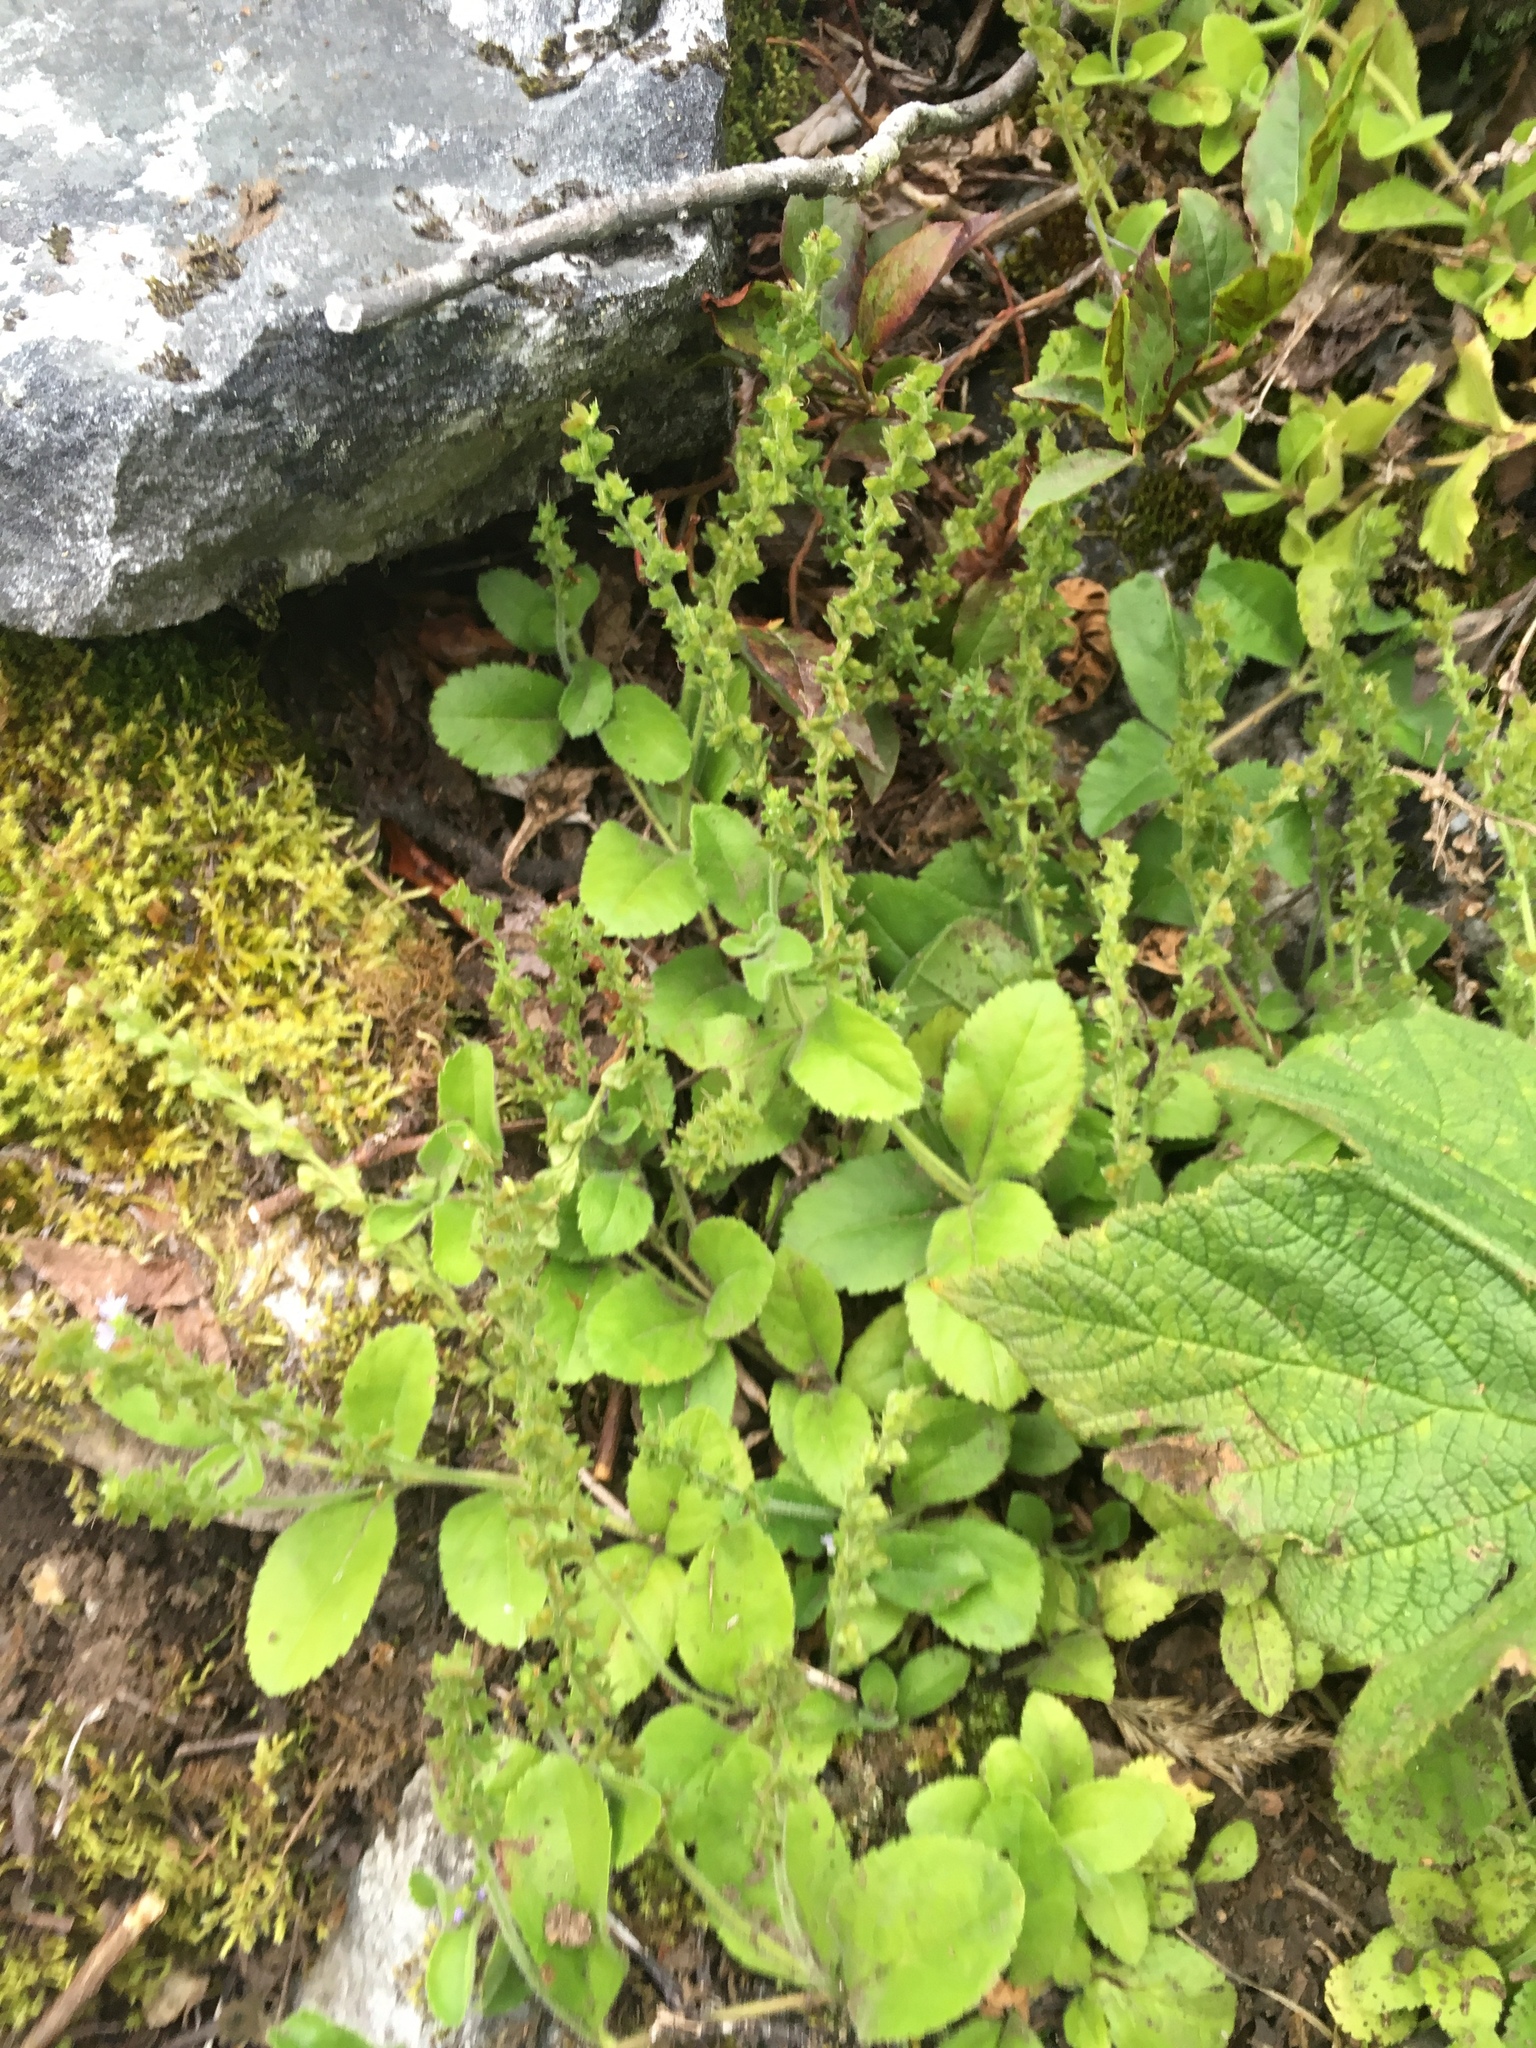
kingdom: Plantae
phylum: Tracheophyta
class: Magnoliopsida
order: Lamiales
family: Plantaginaceae
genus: Veronica
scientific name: Veronica officinalis
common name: Common speedwell
